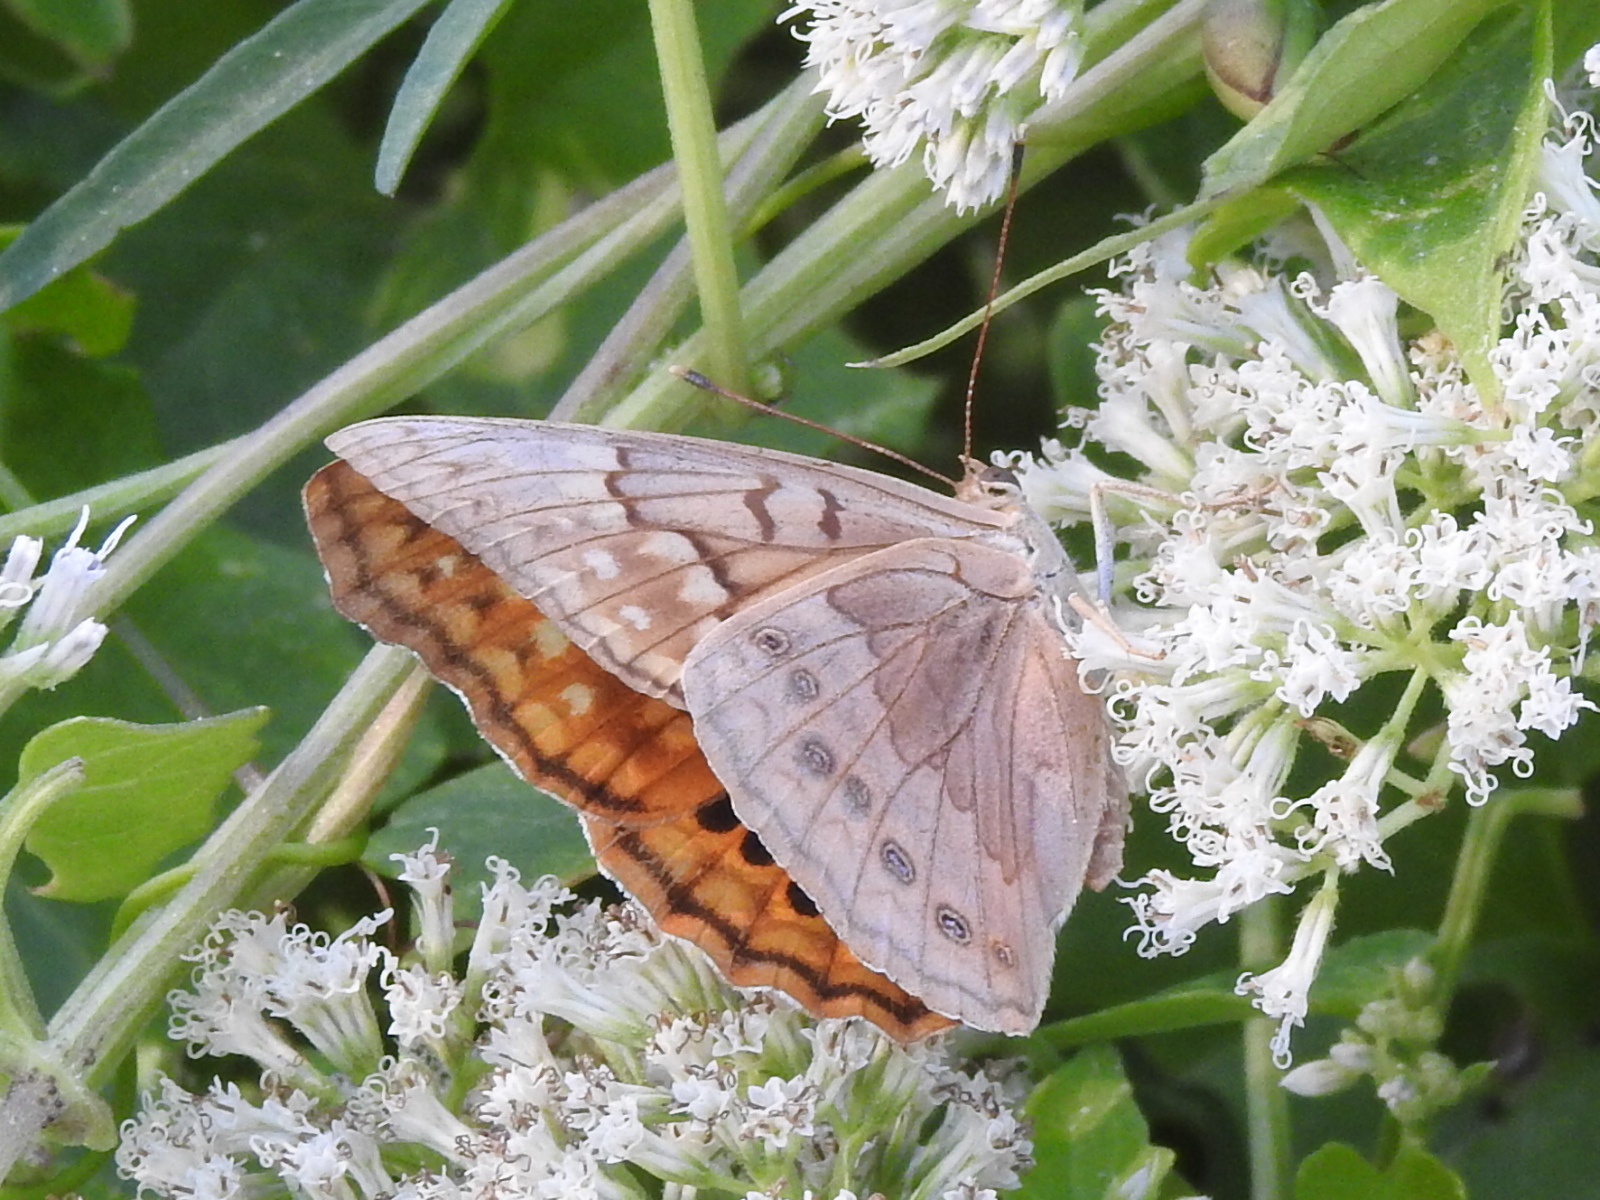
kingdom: Animalia
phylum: Arthropoda
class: Insecta
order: Lepidoptera
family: Nymphalidae
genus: Asterocampa
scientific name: Asterocampa clyton
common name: Tawny emperor
